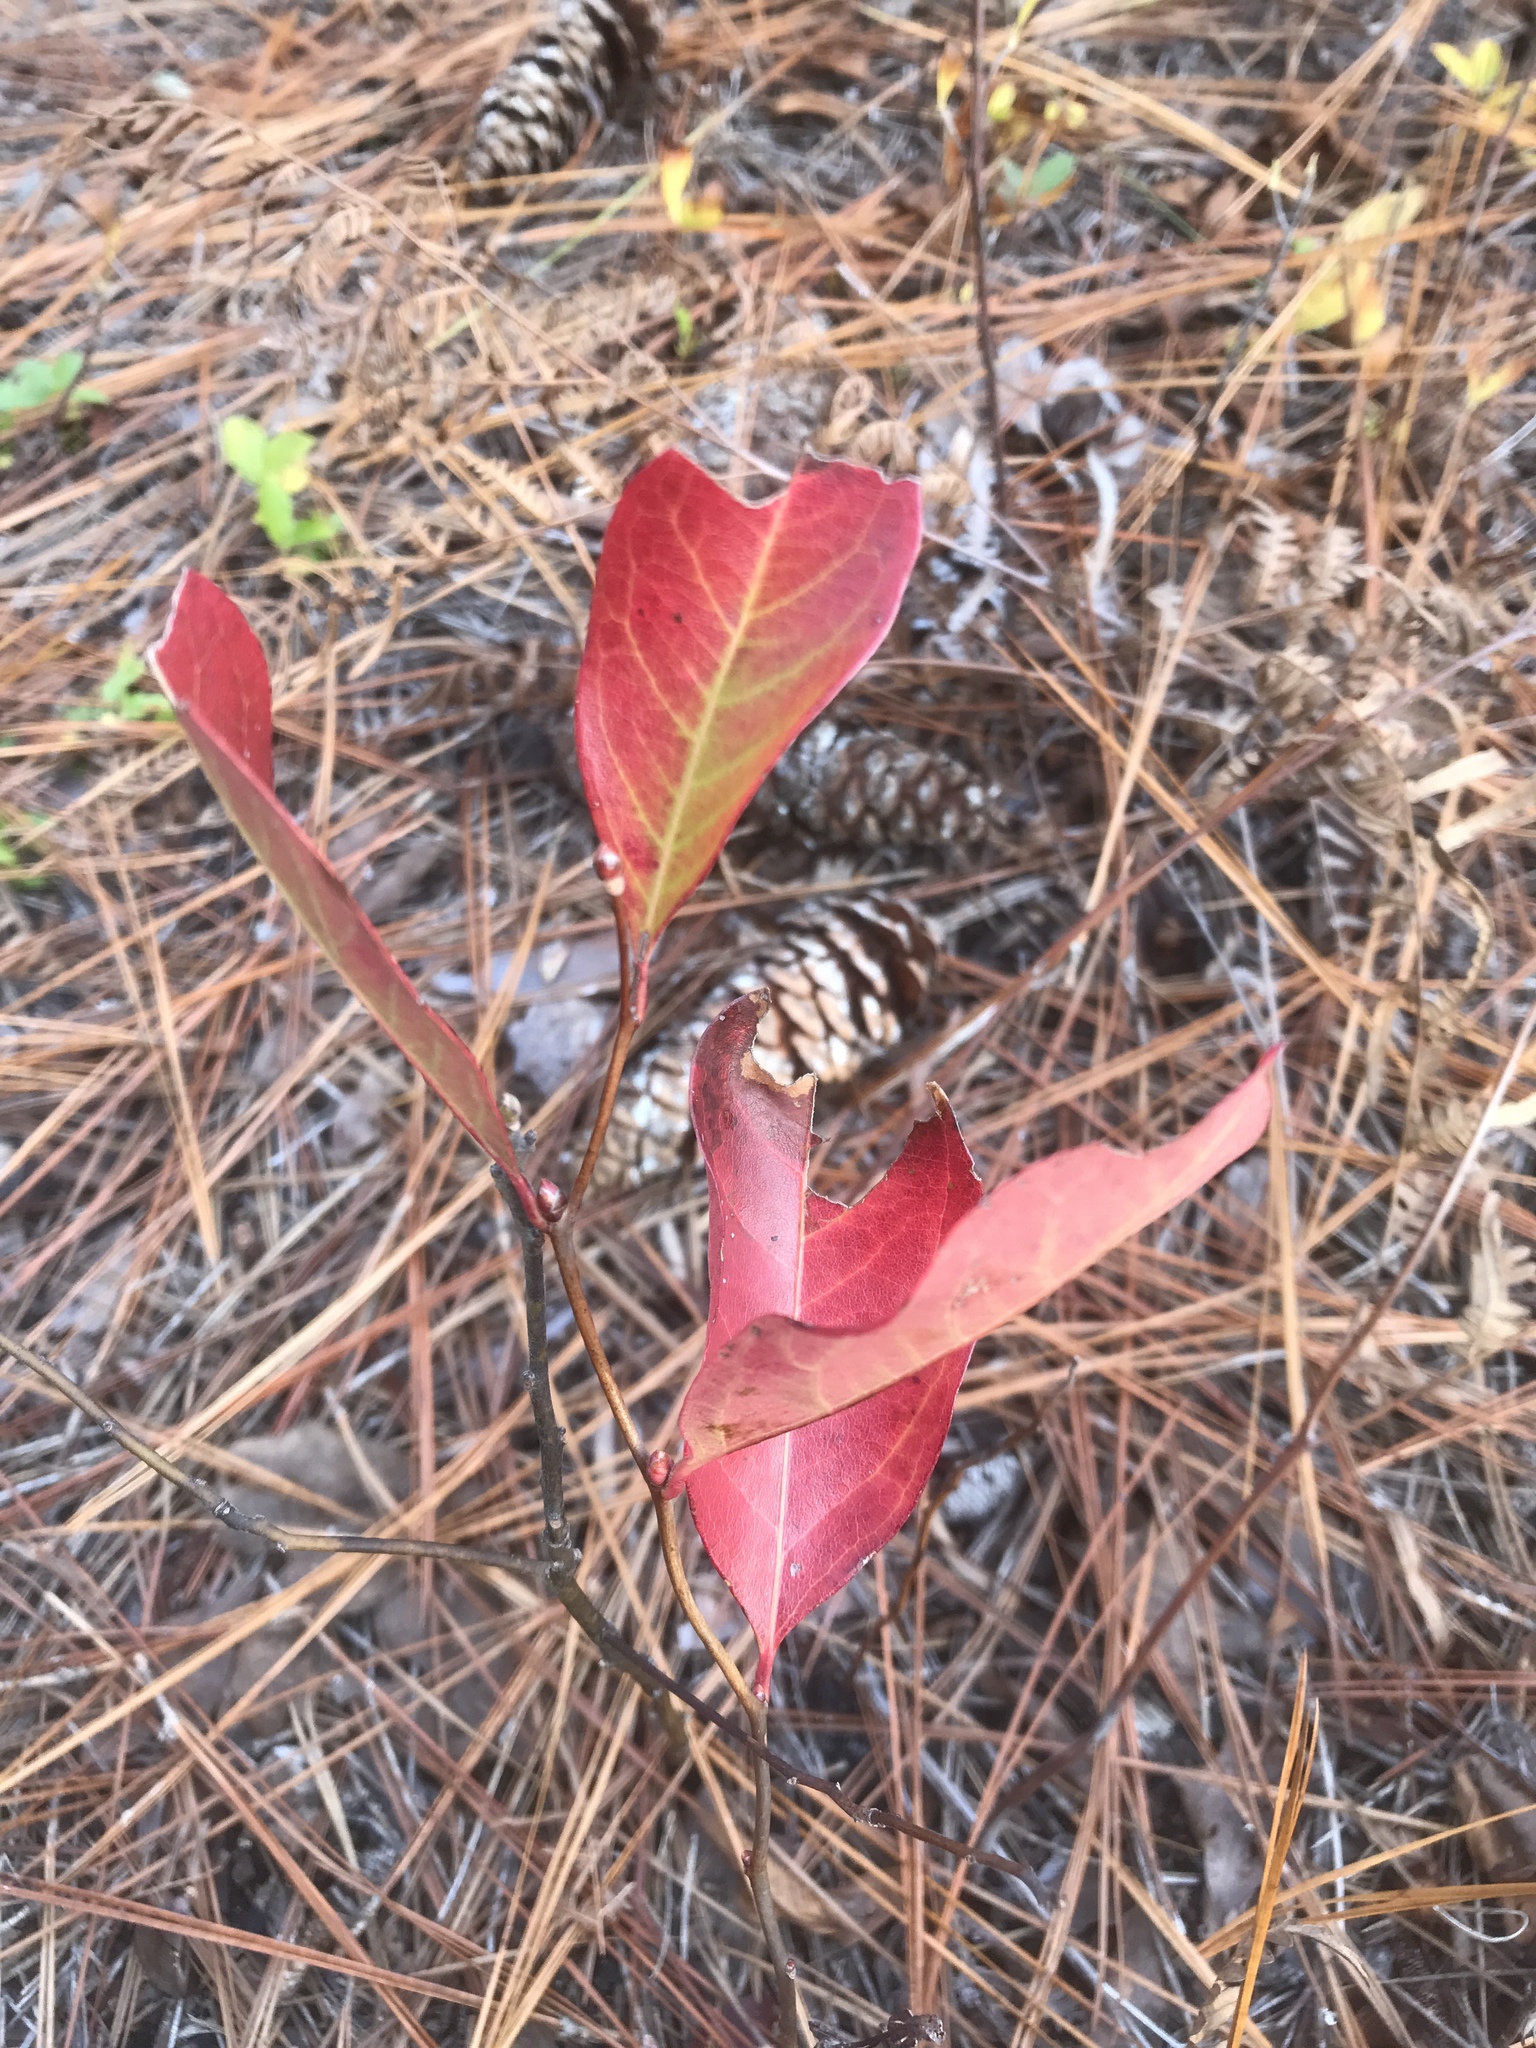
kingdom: Plantae
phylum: Tracheophyta
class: Magnoliopsida
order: Ericales
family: Ericaceae
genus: Lyonia
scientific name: Lyonia mariana
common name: Staggerbush
